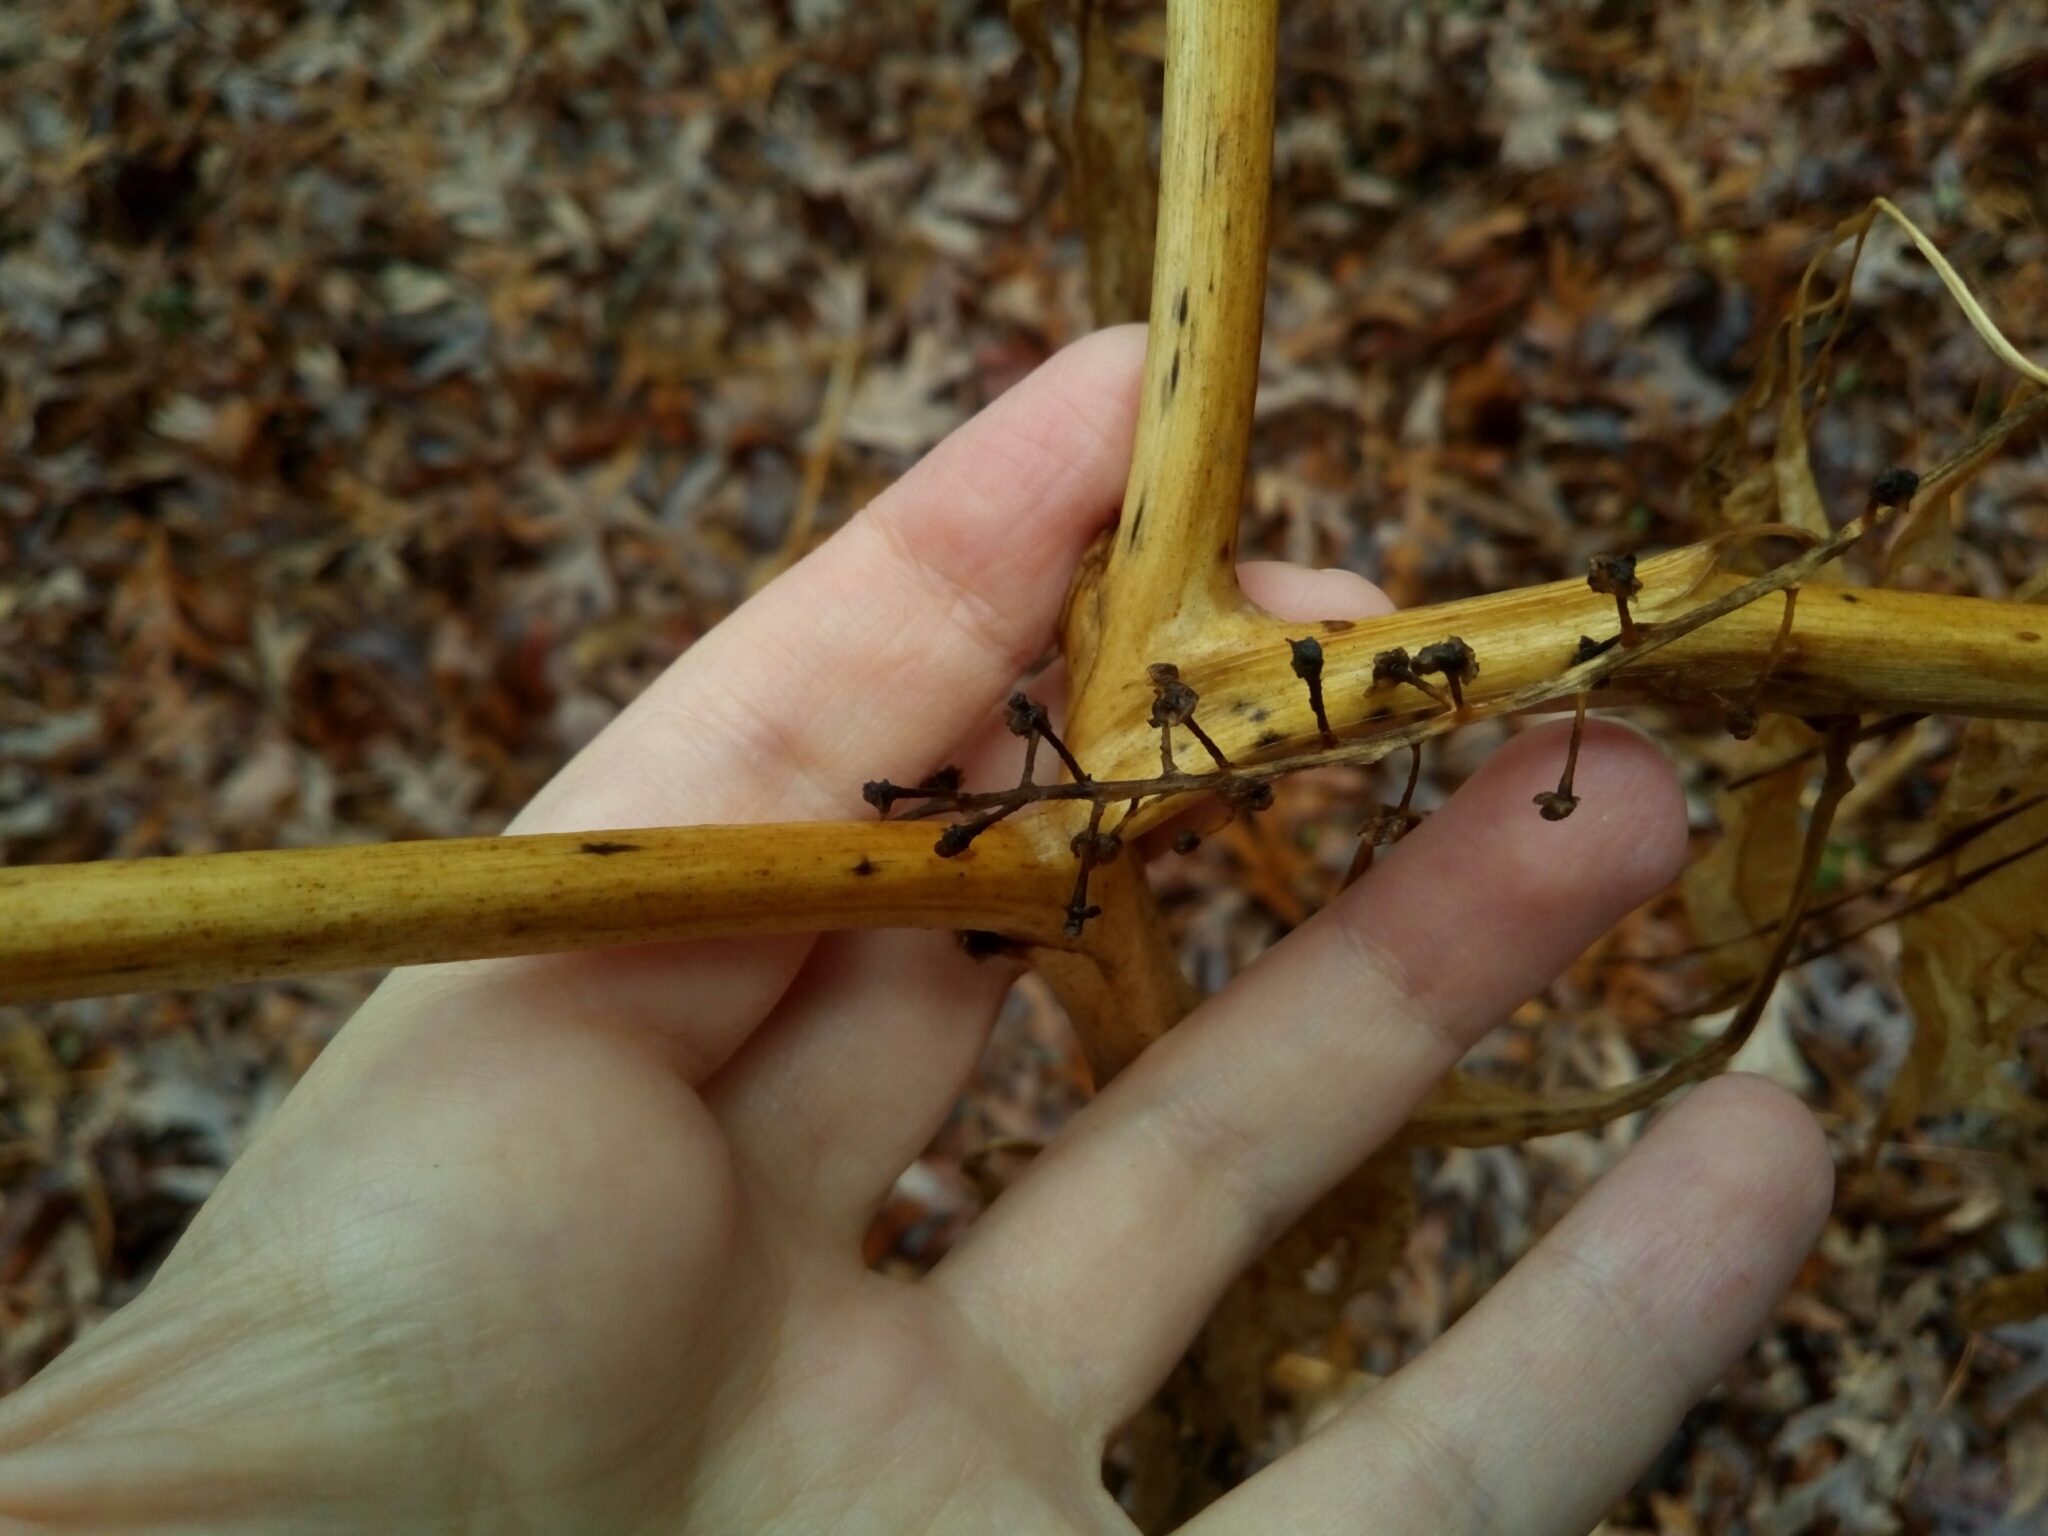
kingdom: Plantae
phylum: Tracheophyta
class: Magnoliopsida
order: Caryophyllales
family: Phytolaccaceae
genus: Phytolacca
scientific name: Phytolacca americana
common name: American pokeweed
